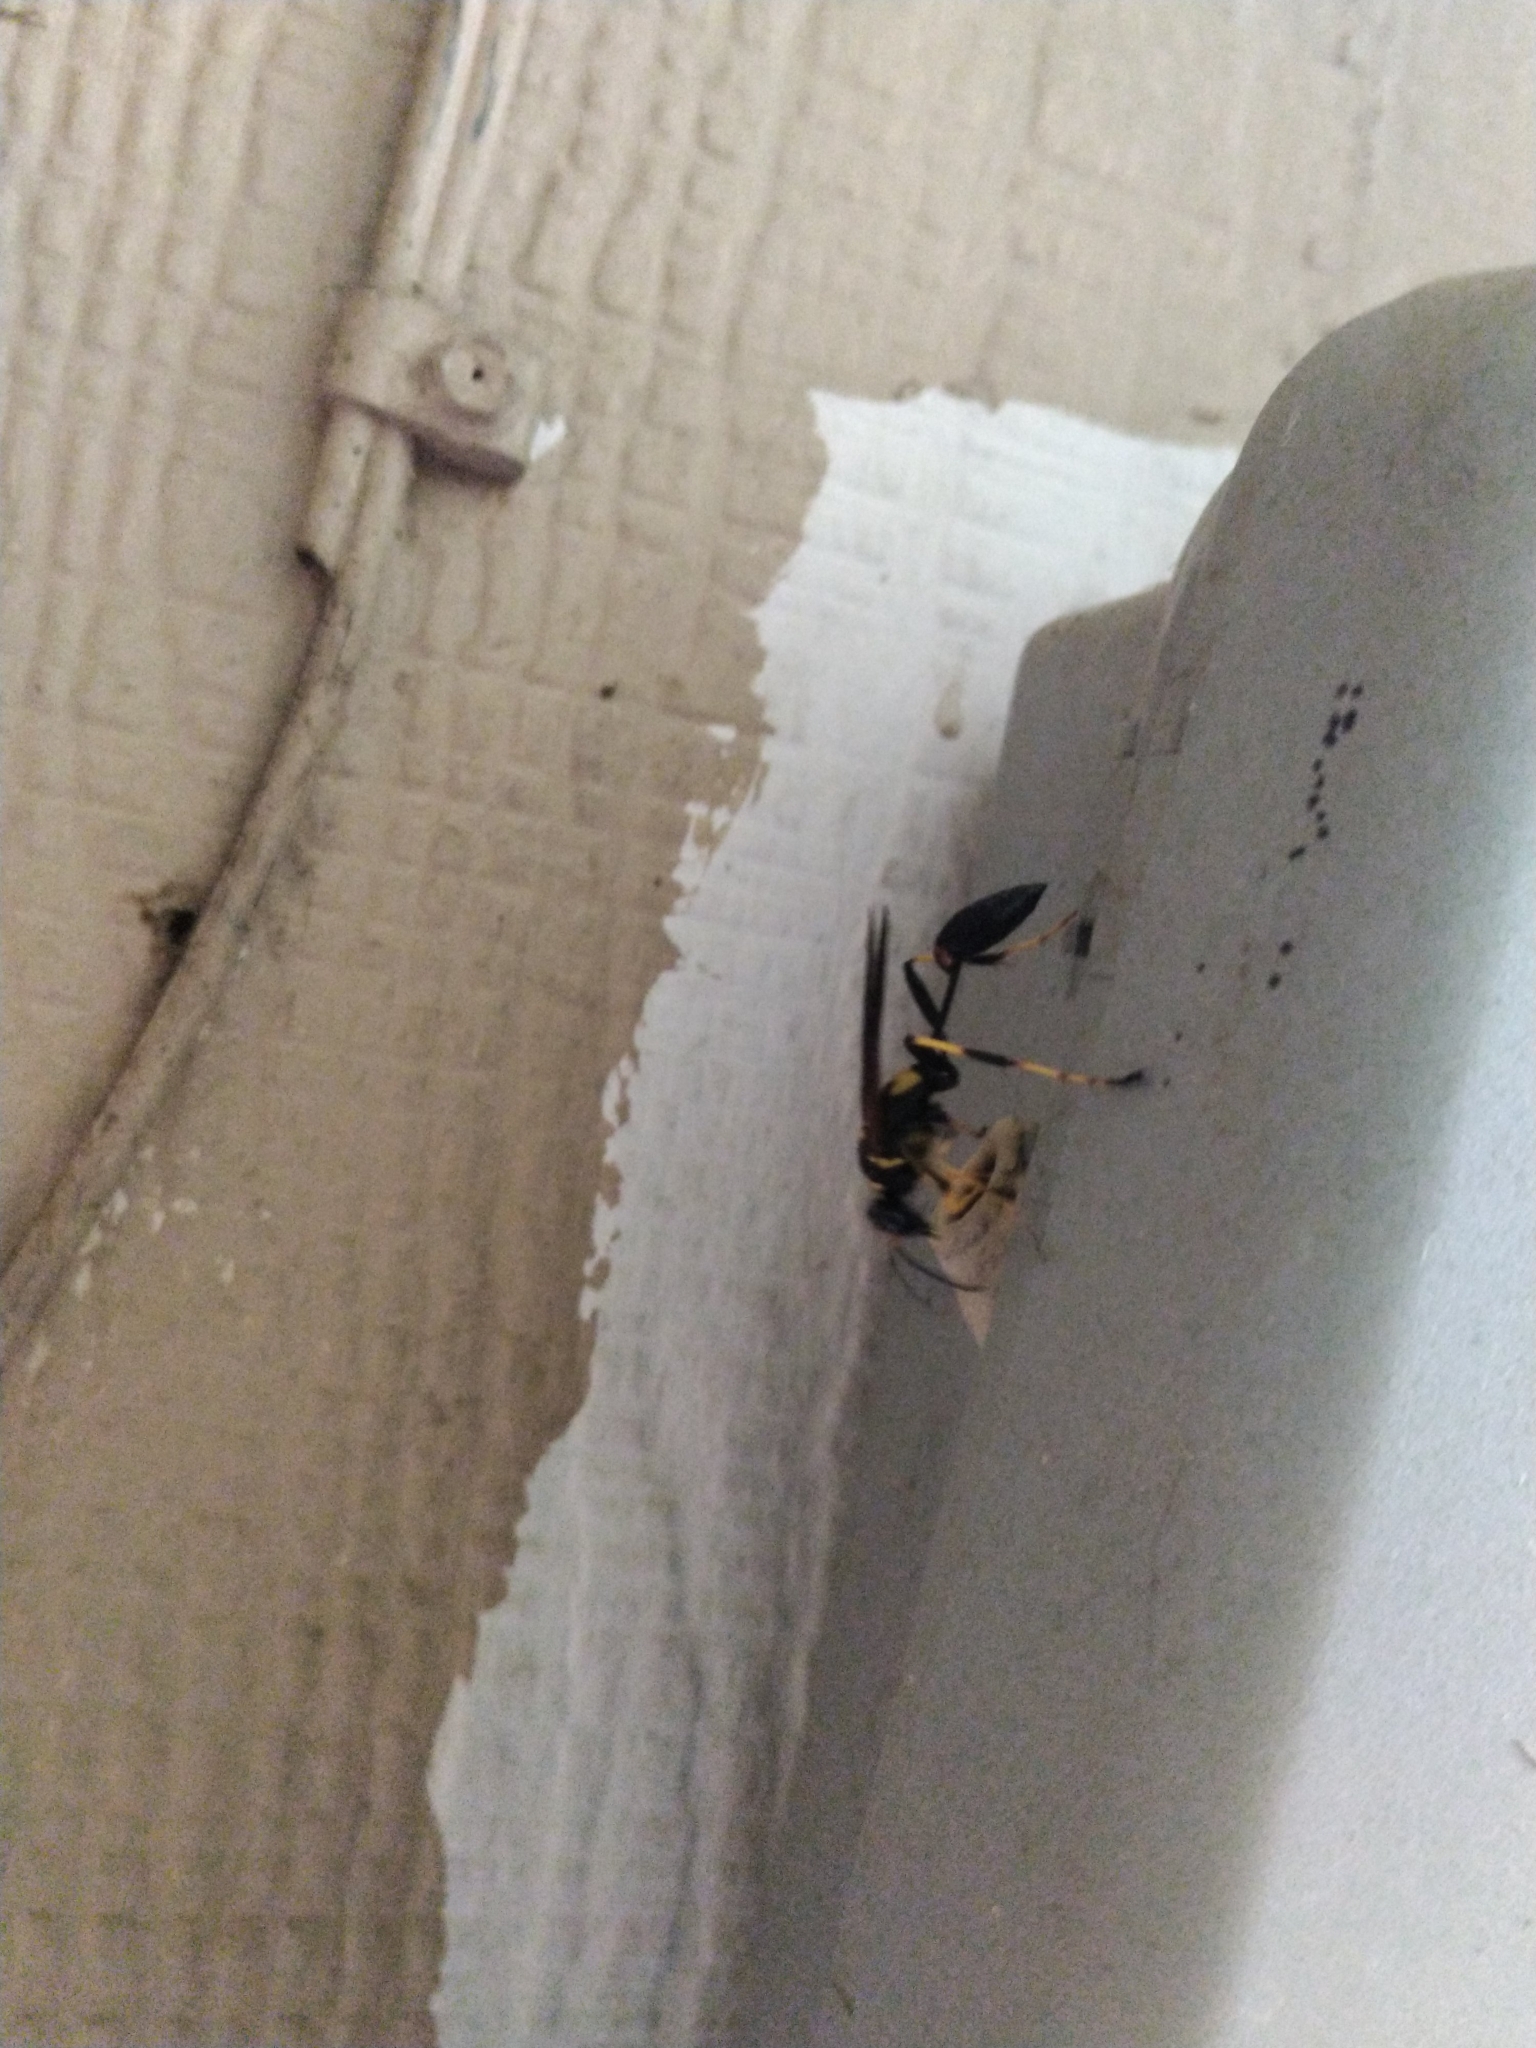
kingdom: Animalia
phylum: Arthropoda
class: Insecta
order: Hymenoptera
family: Sphecidae
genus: Sceliphron
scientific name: Sceliphron caementarium
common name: Mud dauber
